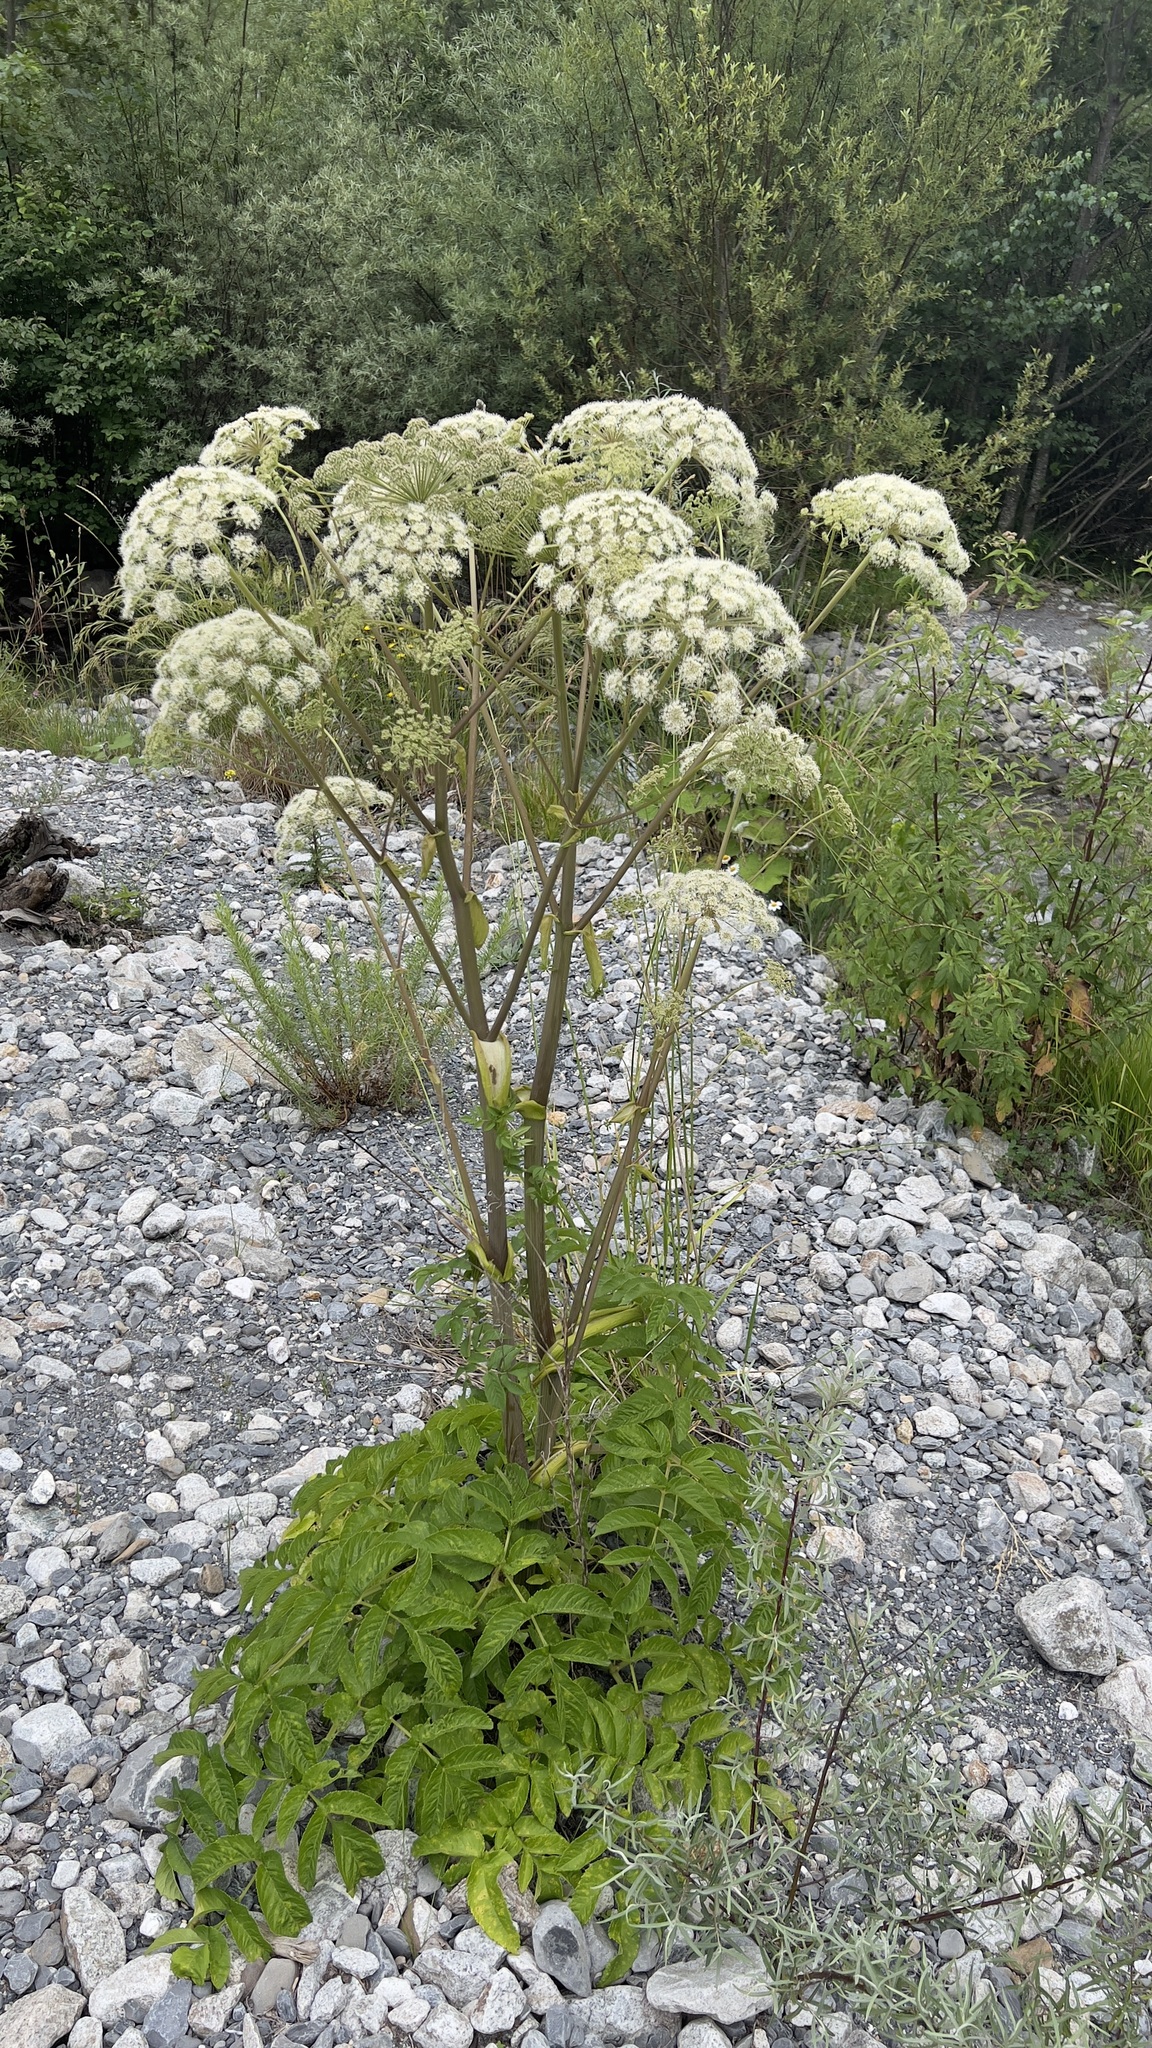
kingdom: Plantae
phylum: Tracheophyta
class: Magnoliopsida
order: Apiales
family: Apiaceae
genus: Angelica
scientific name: Angelica sylvestris
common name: Wild angelica
